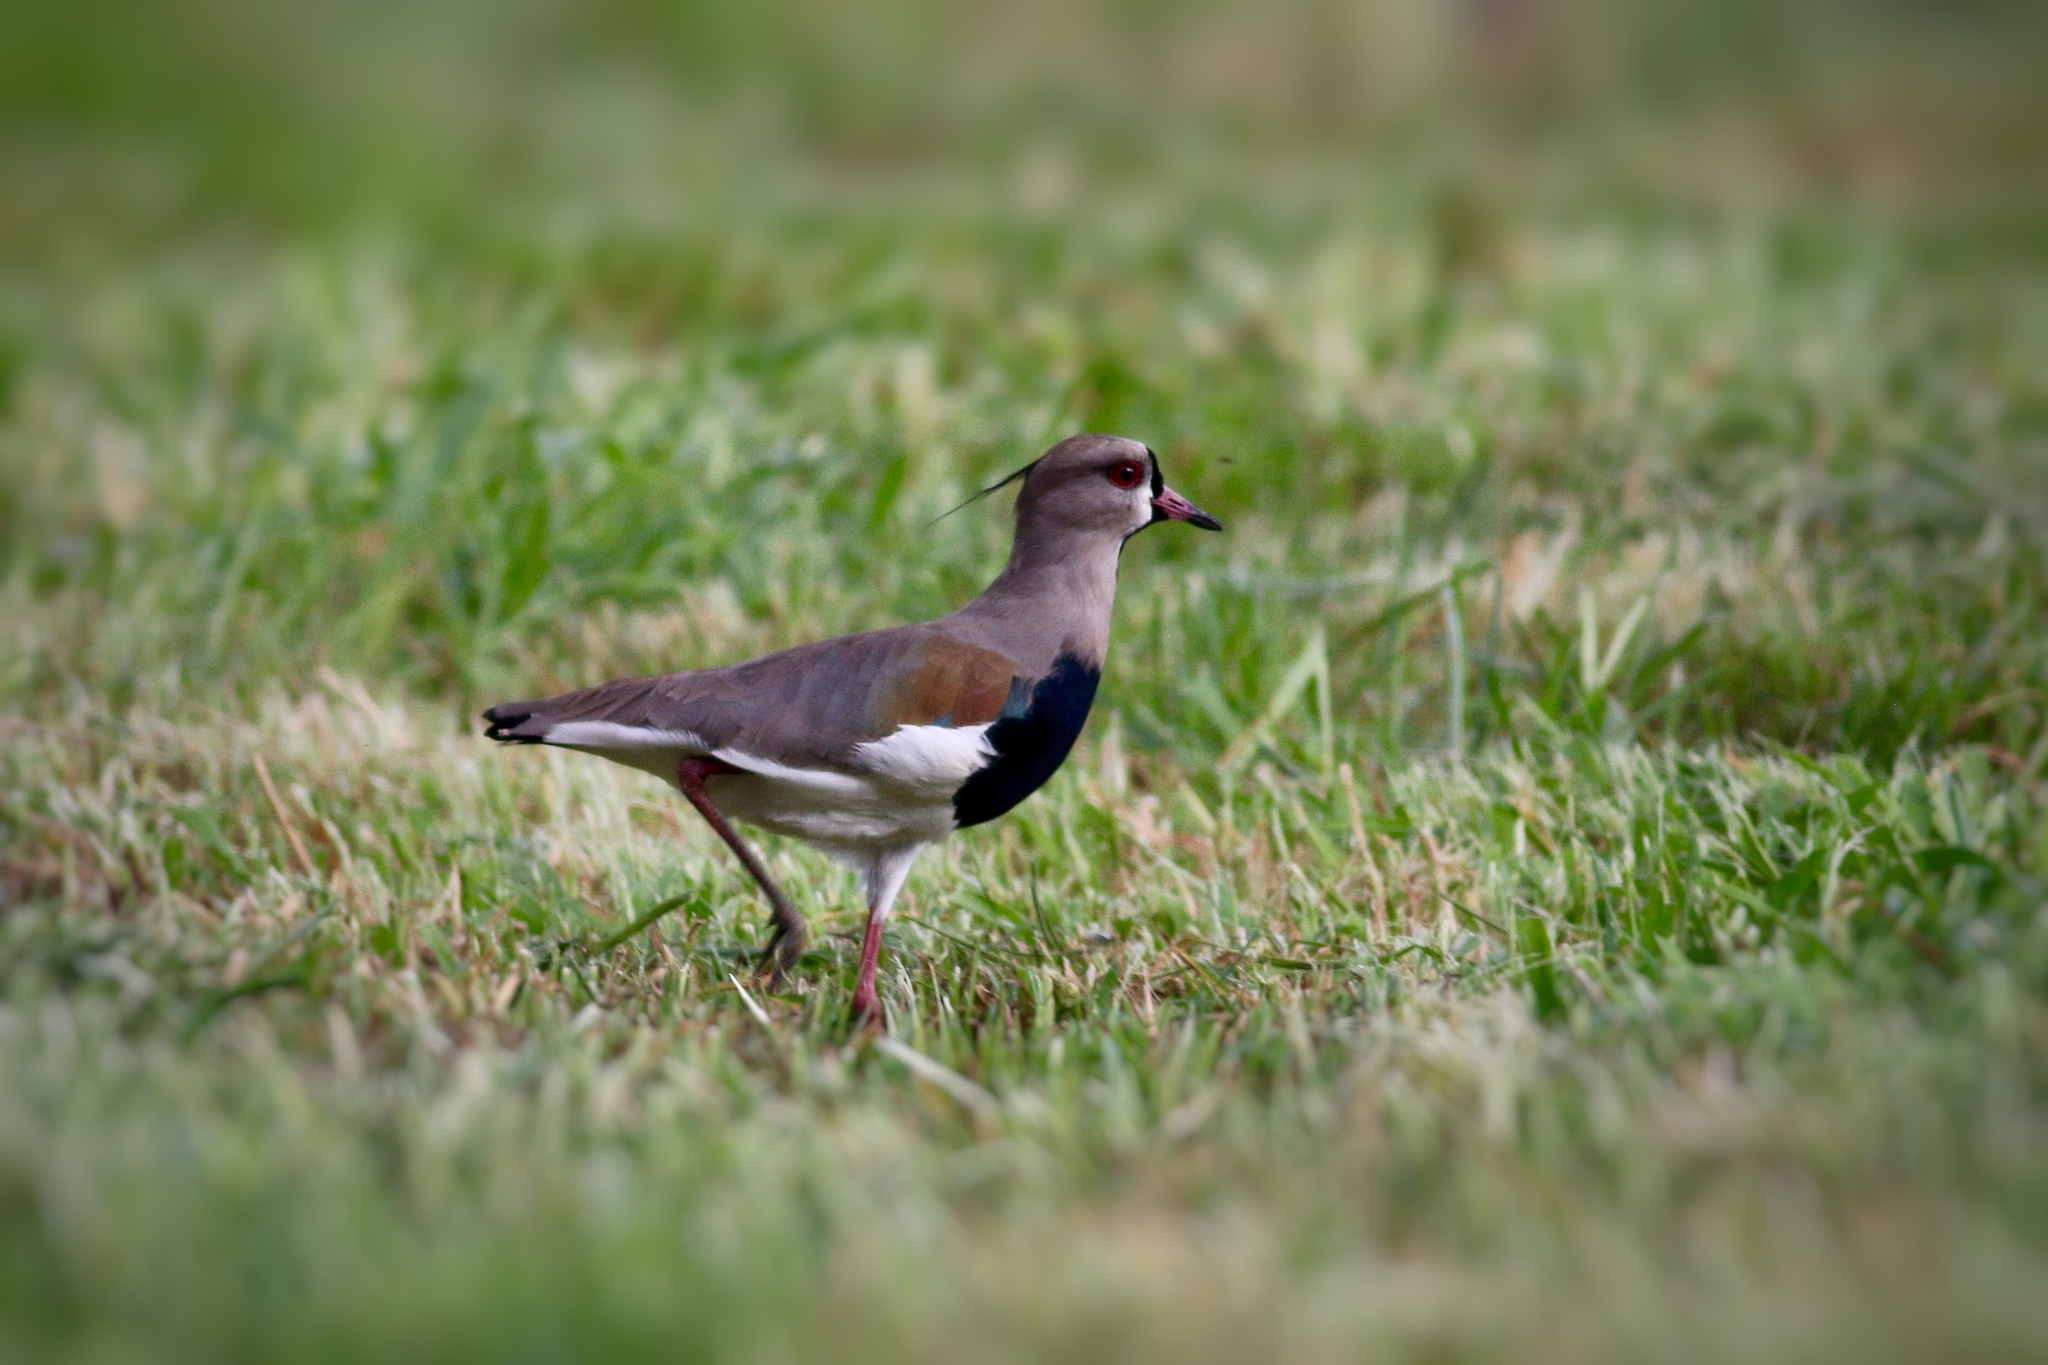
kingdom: Animalia
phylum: Chordata
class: Aves
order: Charadriiformes
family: Charadriidae
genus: Vanellus
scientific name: Vanellus chilensis
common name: Southern lapwing
